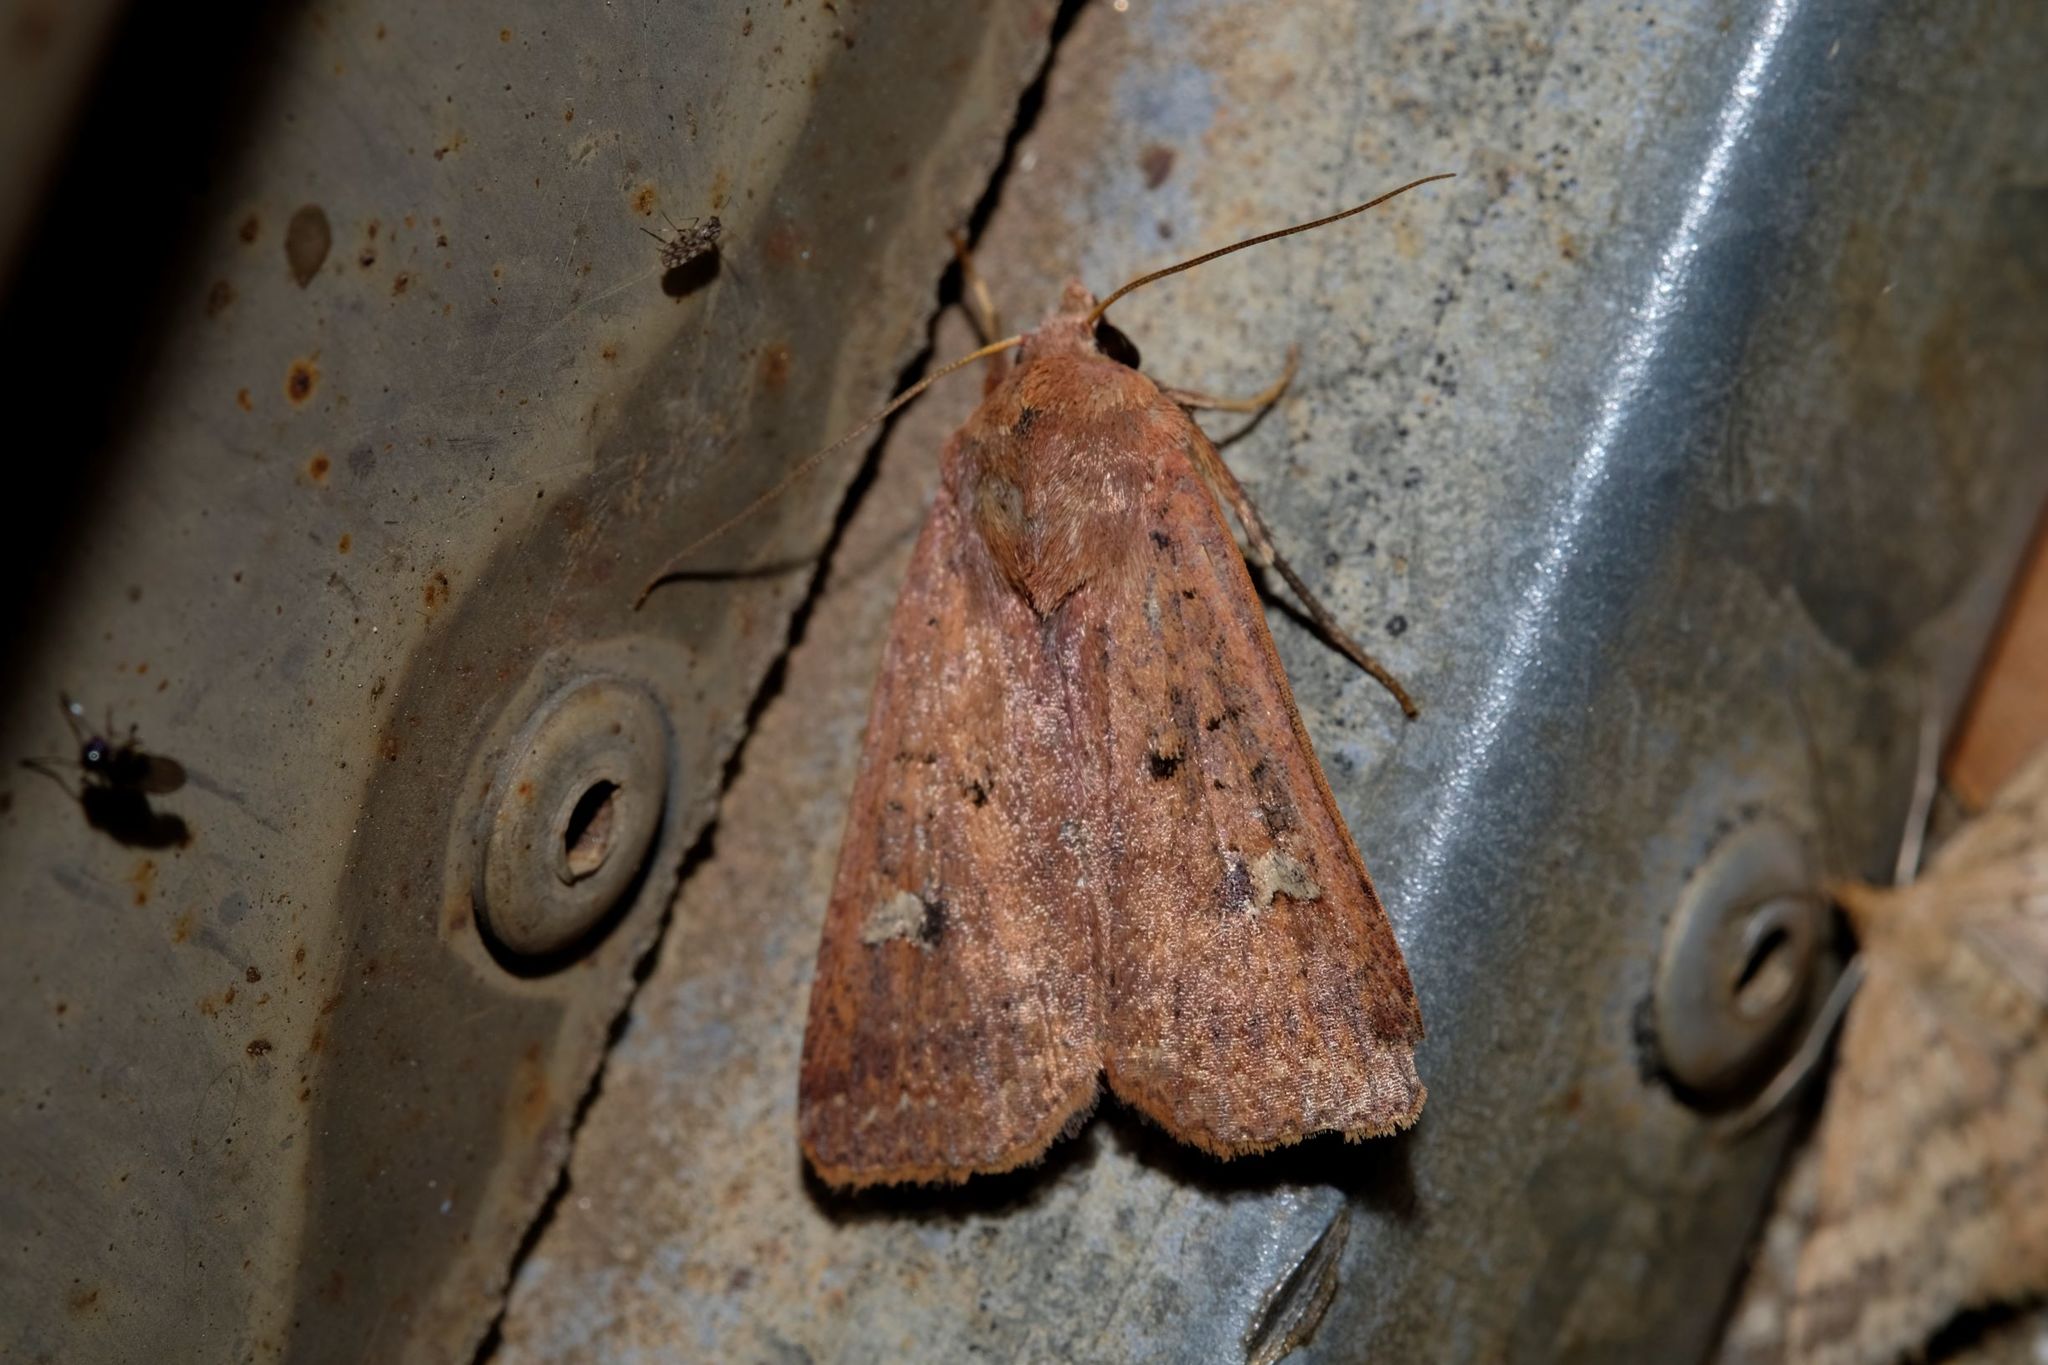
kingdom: Animalia
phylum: Arthropoda
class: Insecta
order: Lepidoptera
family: Noctuidae
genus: Diarsia
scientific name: Diarsia intermixta
